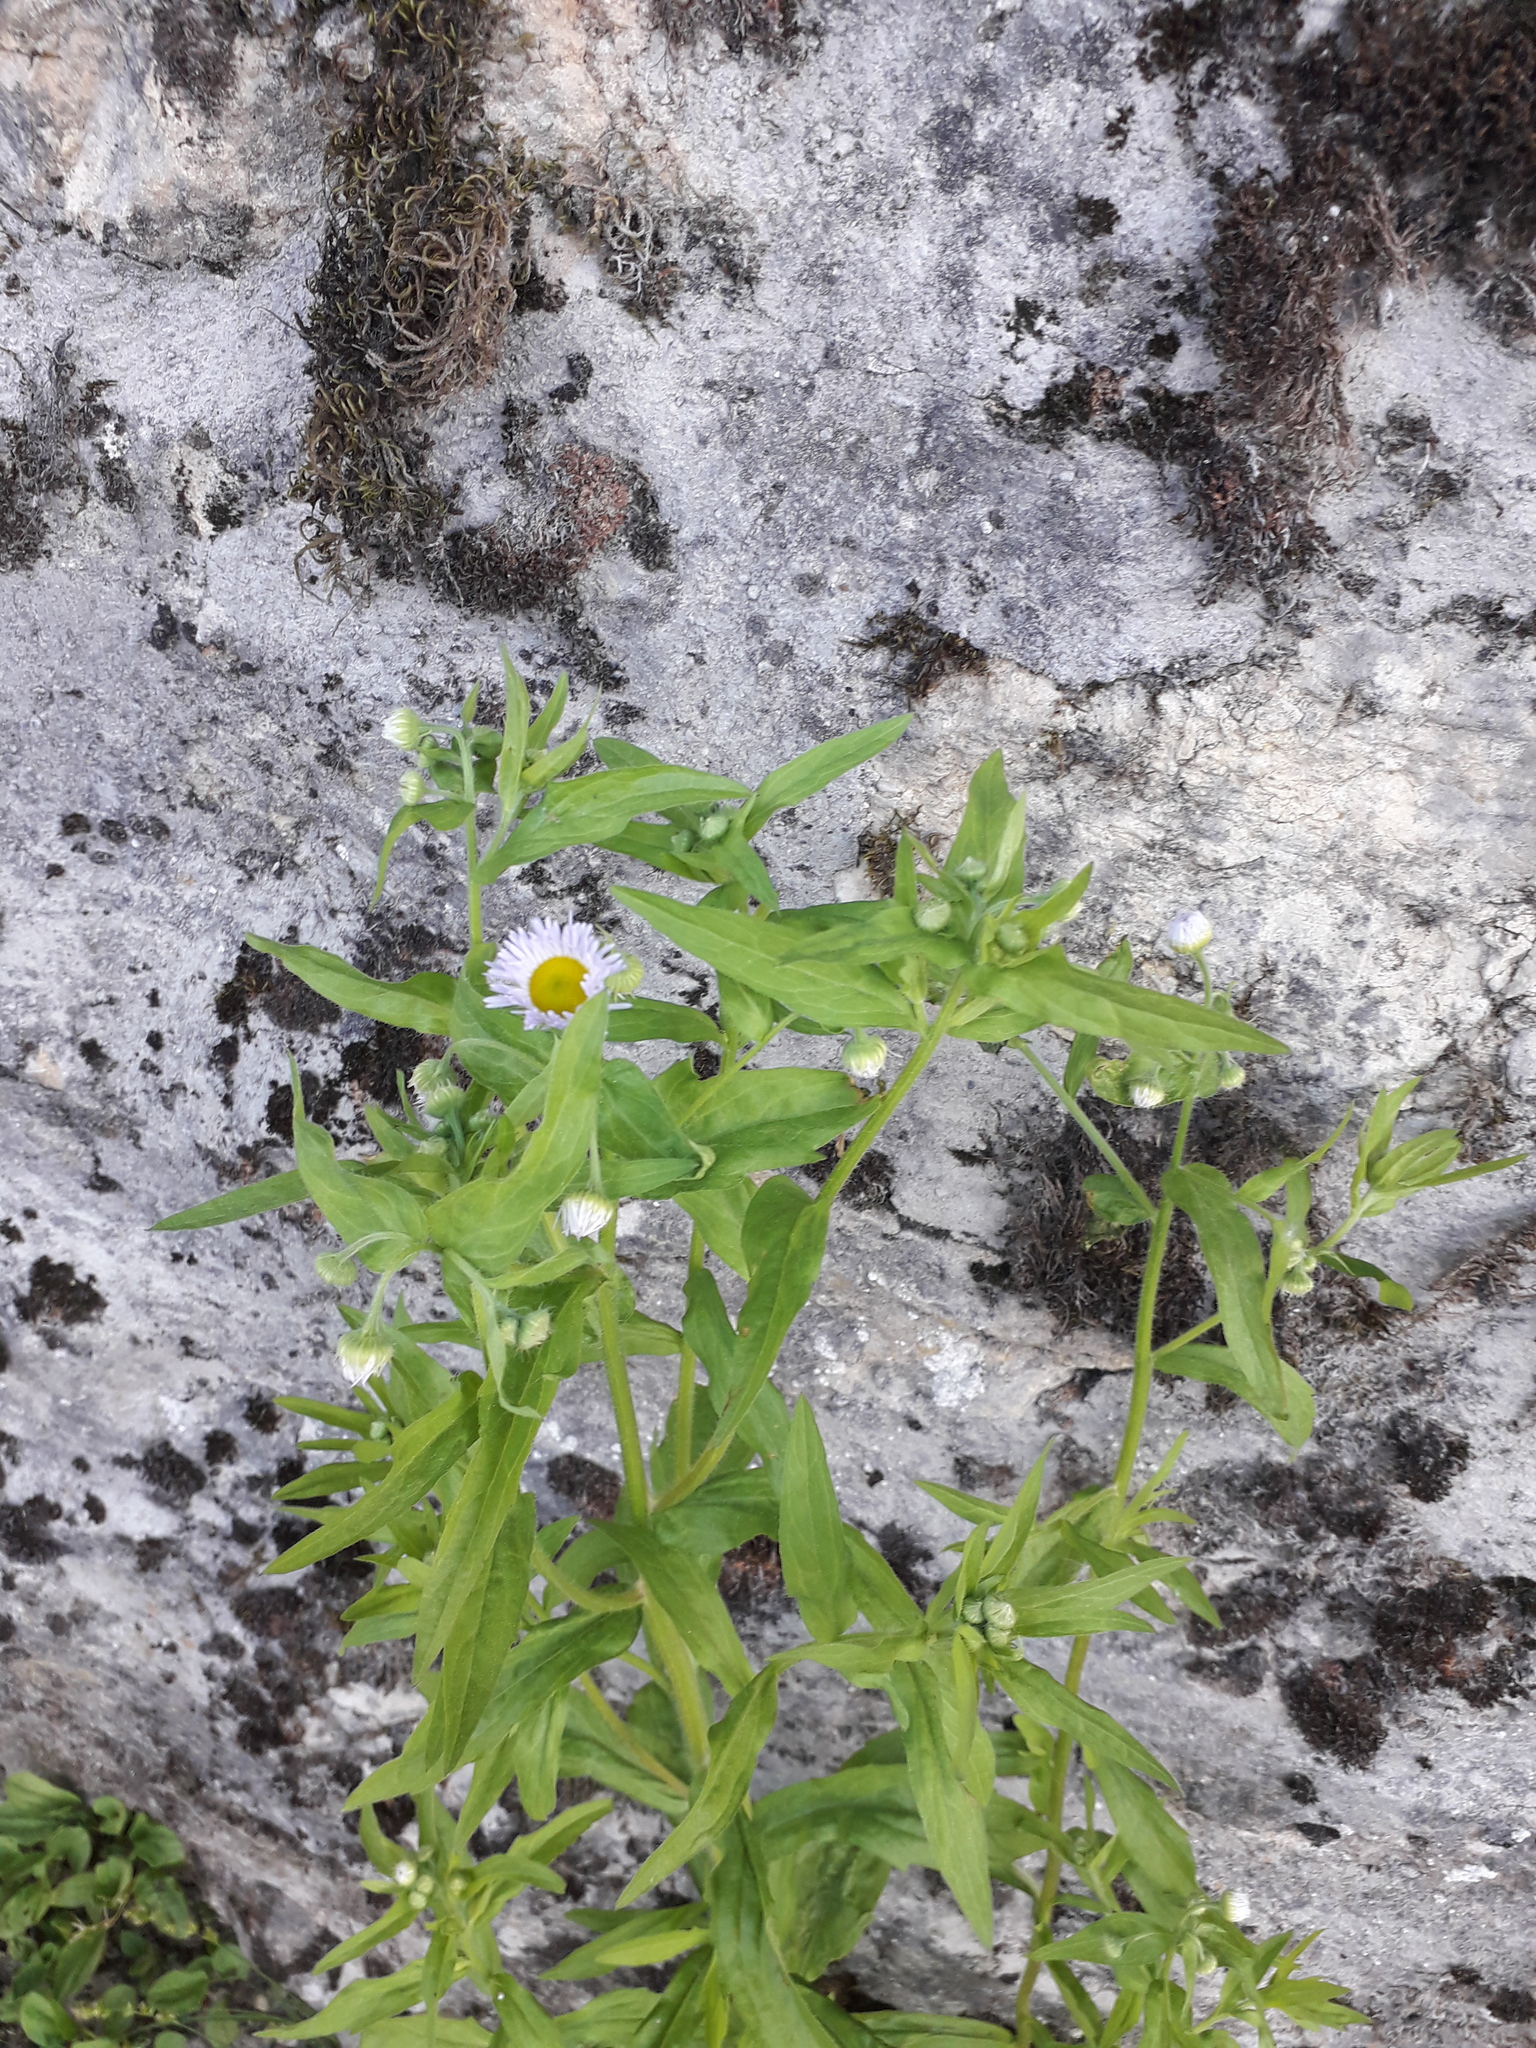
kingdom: Plantae
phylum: Tracheophyta
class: Magnoliopsida
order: Asterales
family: Asteraceae
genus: Erigeron
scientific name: Erigeron annuus
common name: Tall fleabane
